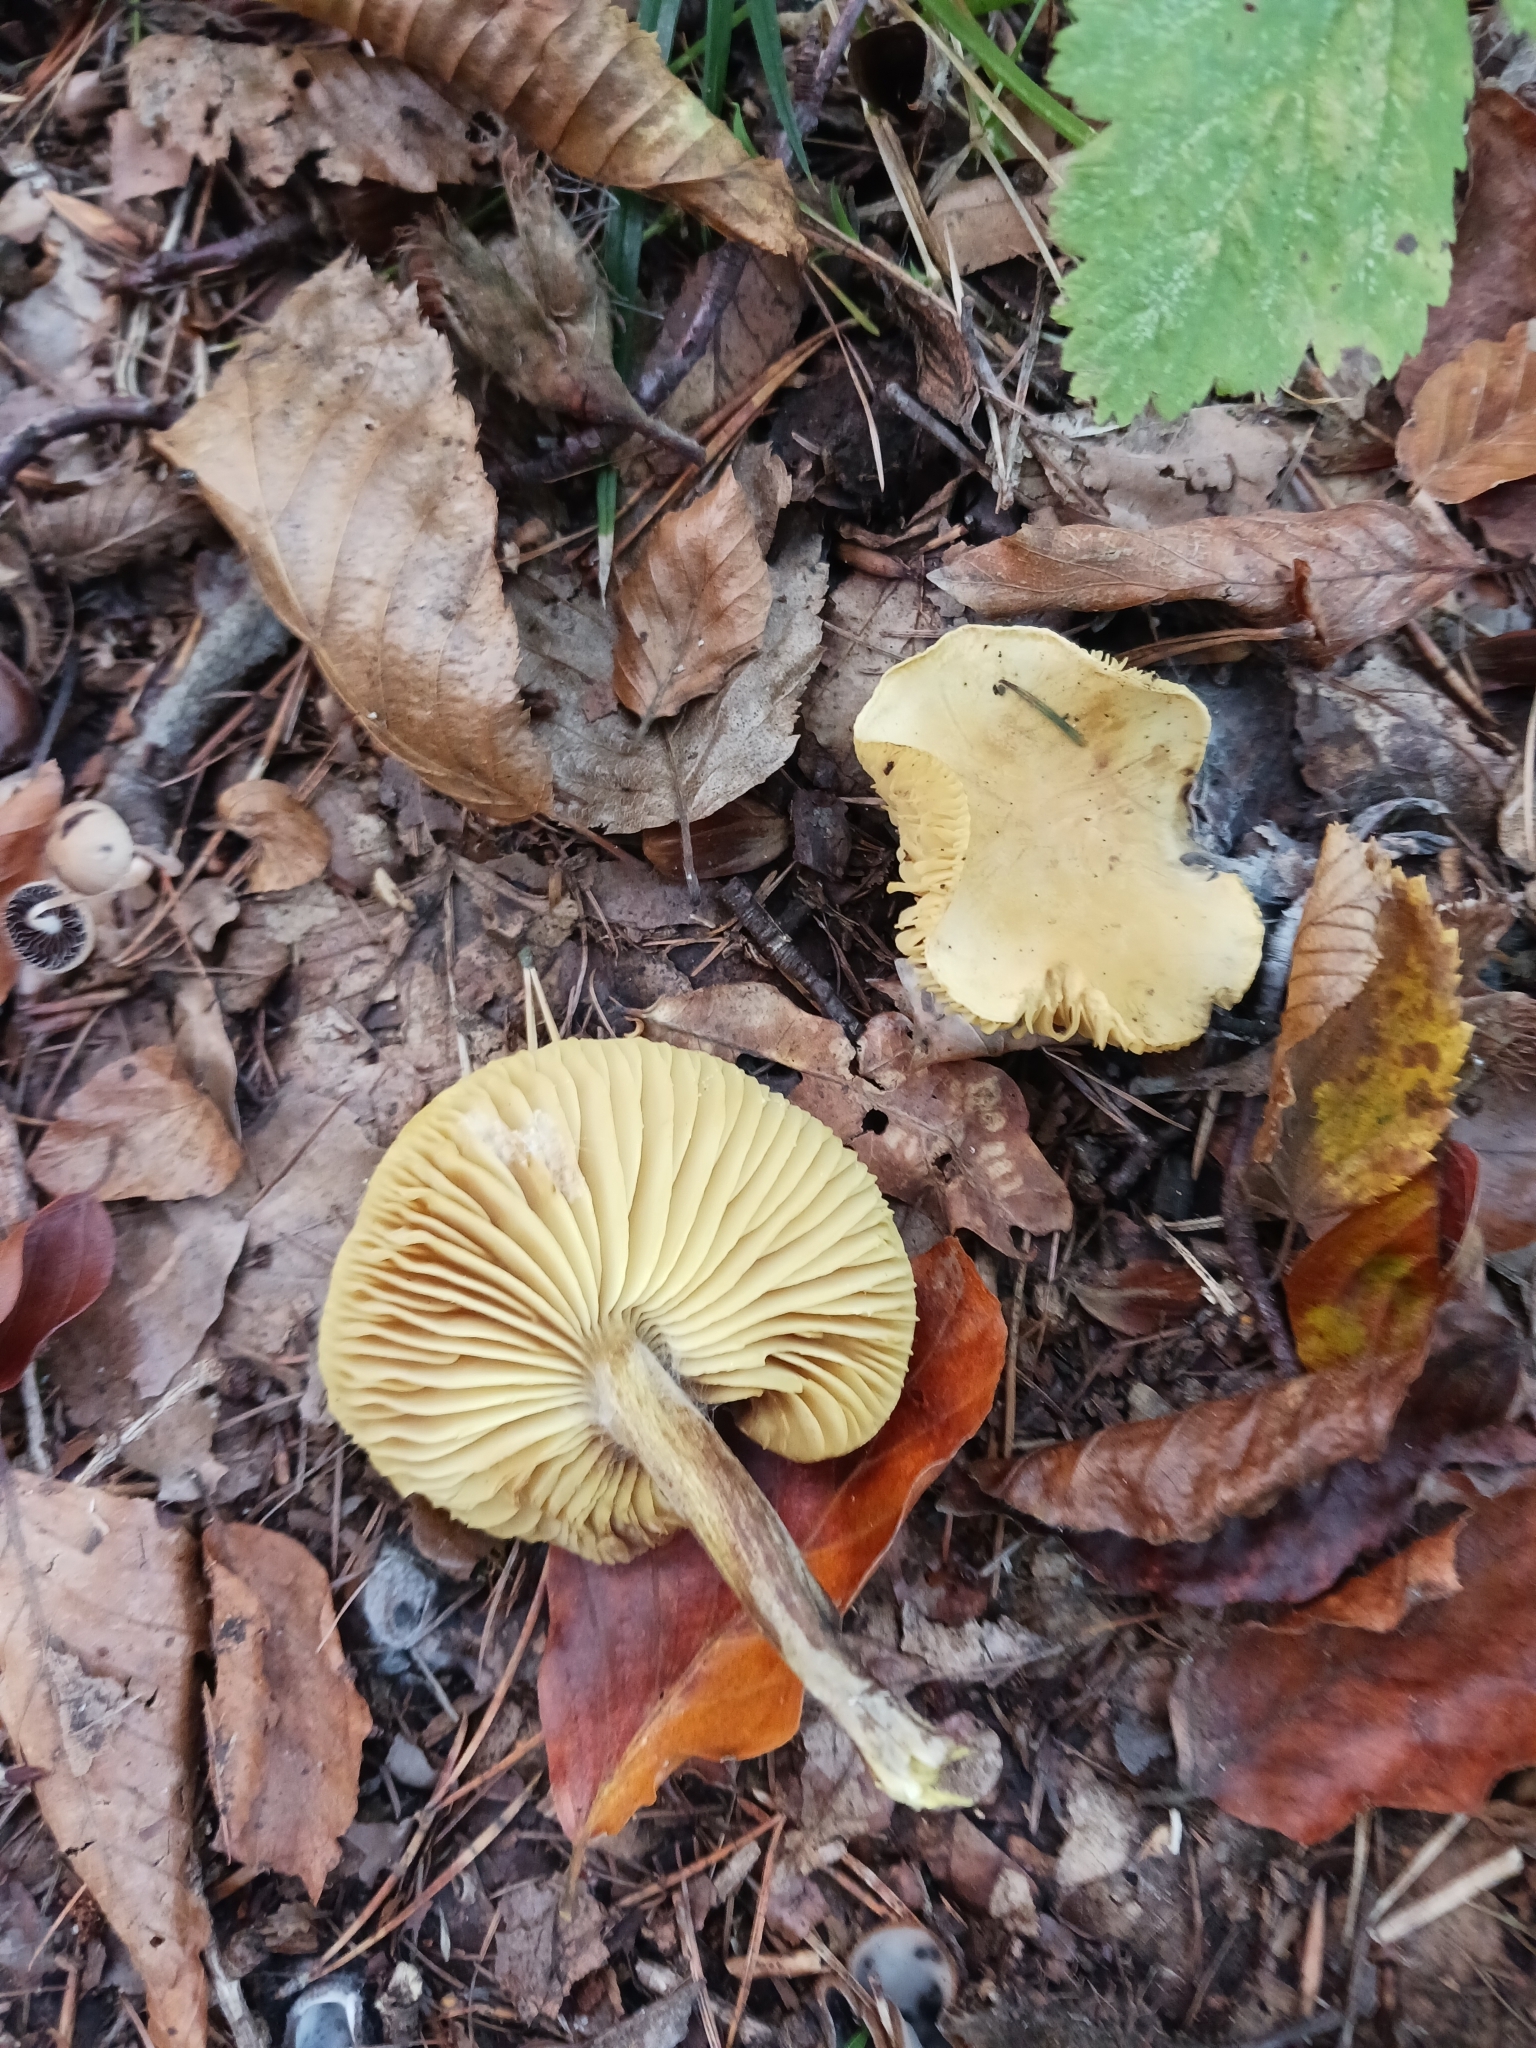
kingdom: Fungi
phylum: Basidiomycota
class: Agaricomycetes
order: Agaricales
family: Tricholomataceae
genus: Tricholoma
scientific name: Tricholoma sulphureum
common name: Stinky knight
